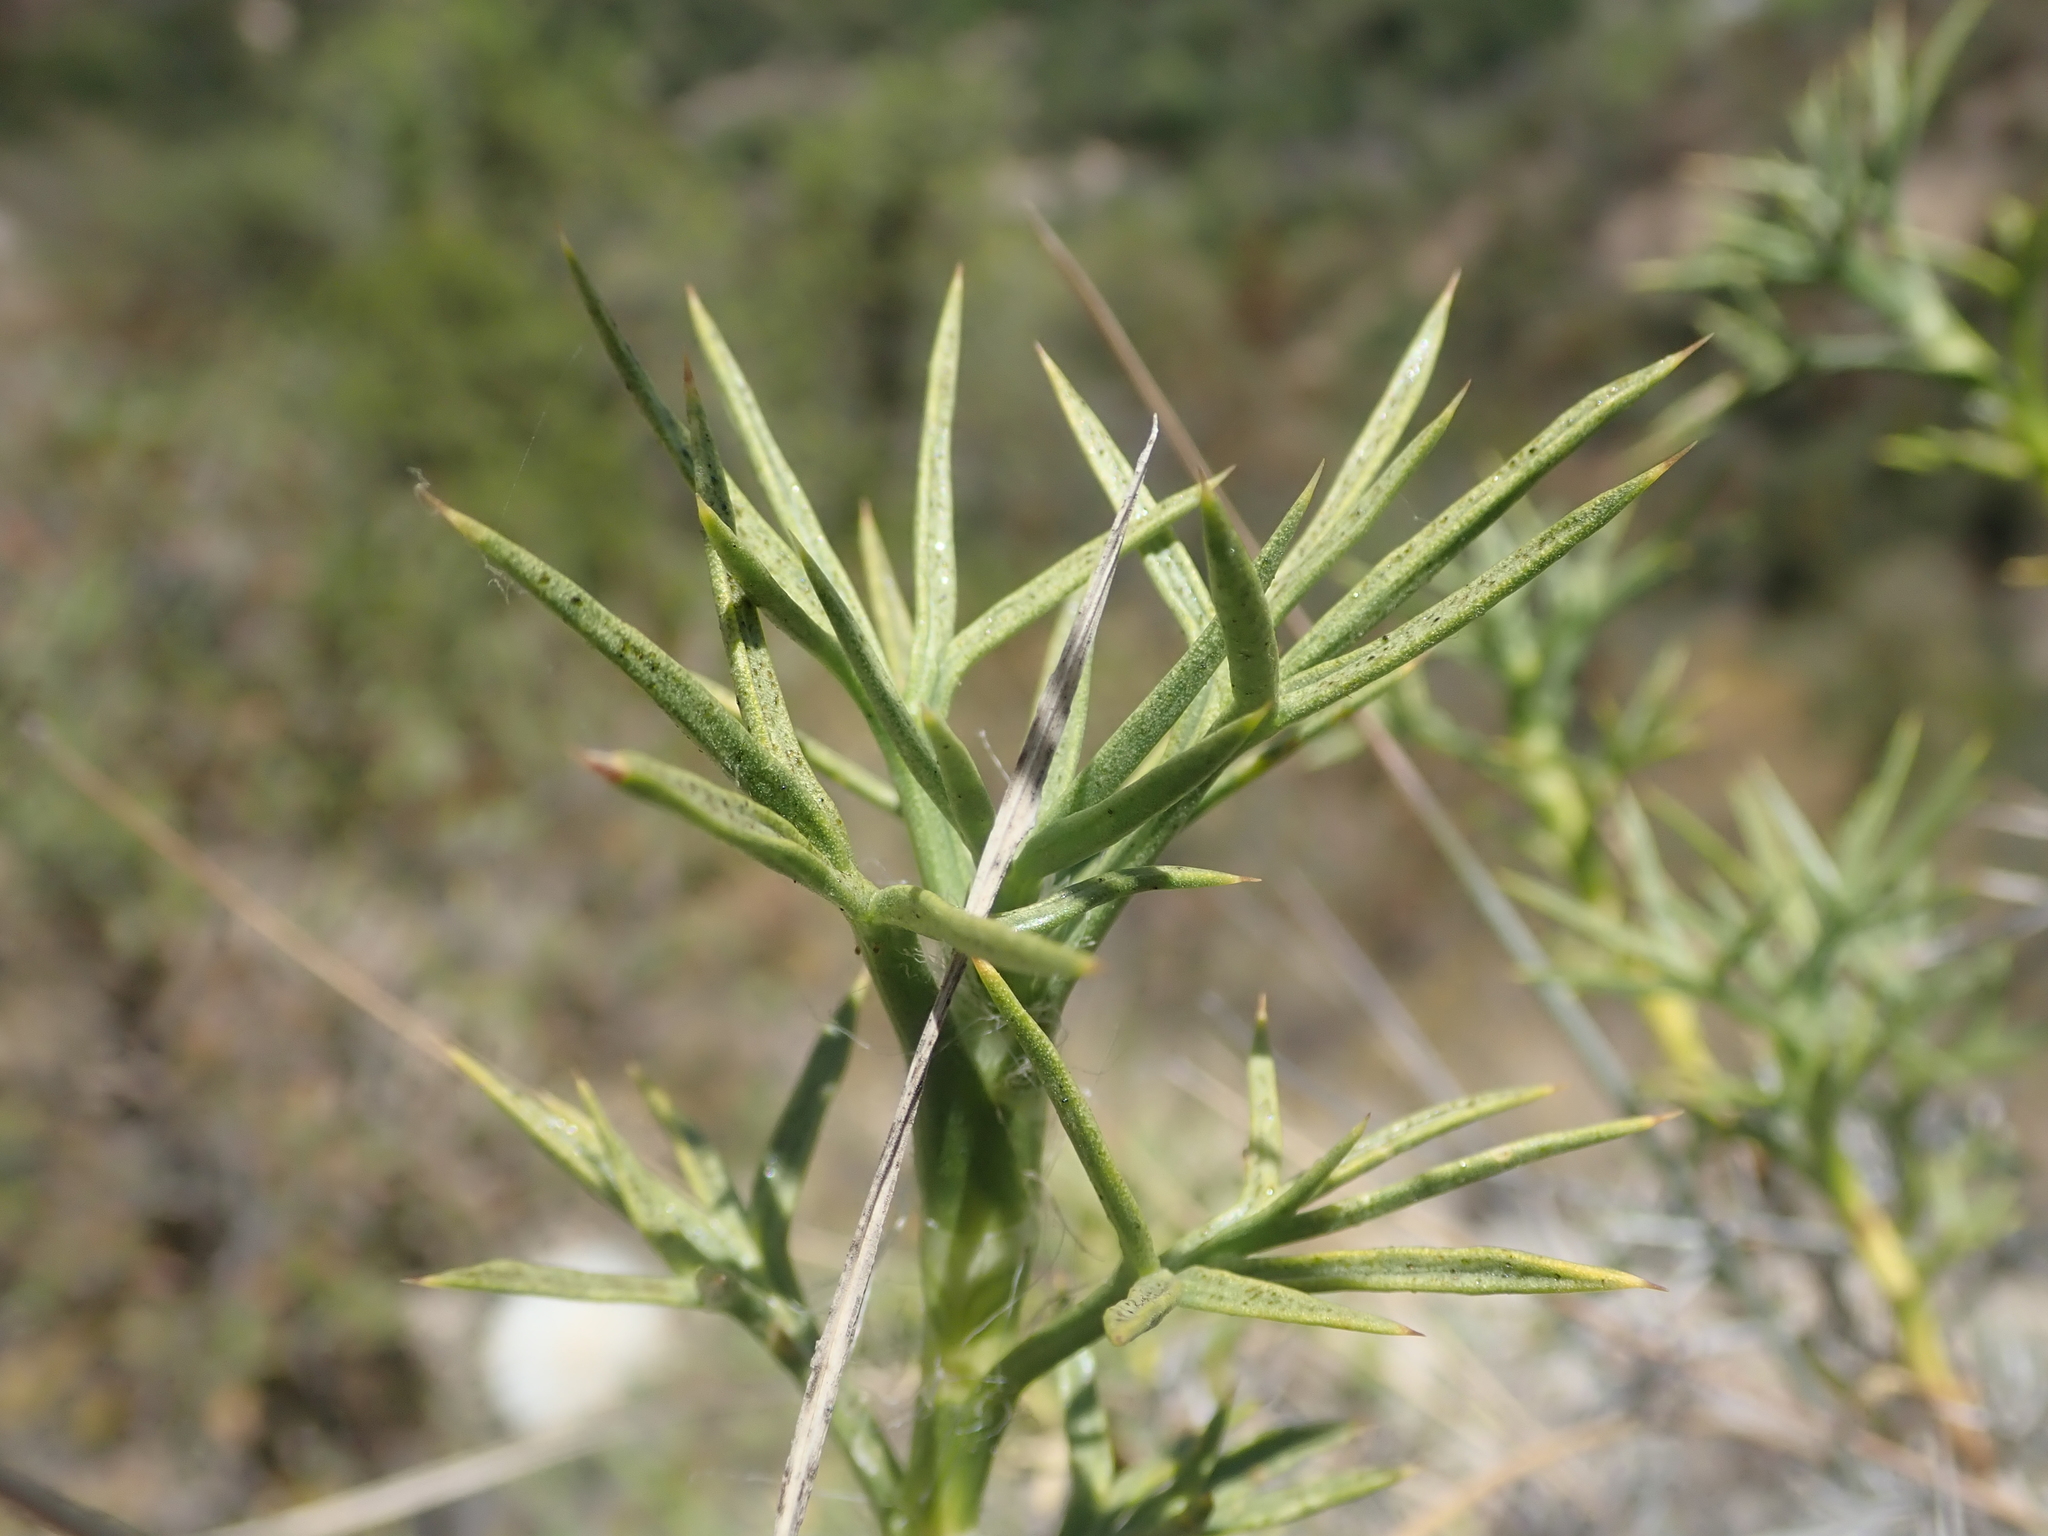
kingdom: Plantae
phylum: Tracheophyta
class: Magnoliopsida
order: Santalales
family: Schoepfiaceae
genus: Quinchamalium
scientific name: Quinchamalium chilense
